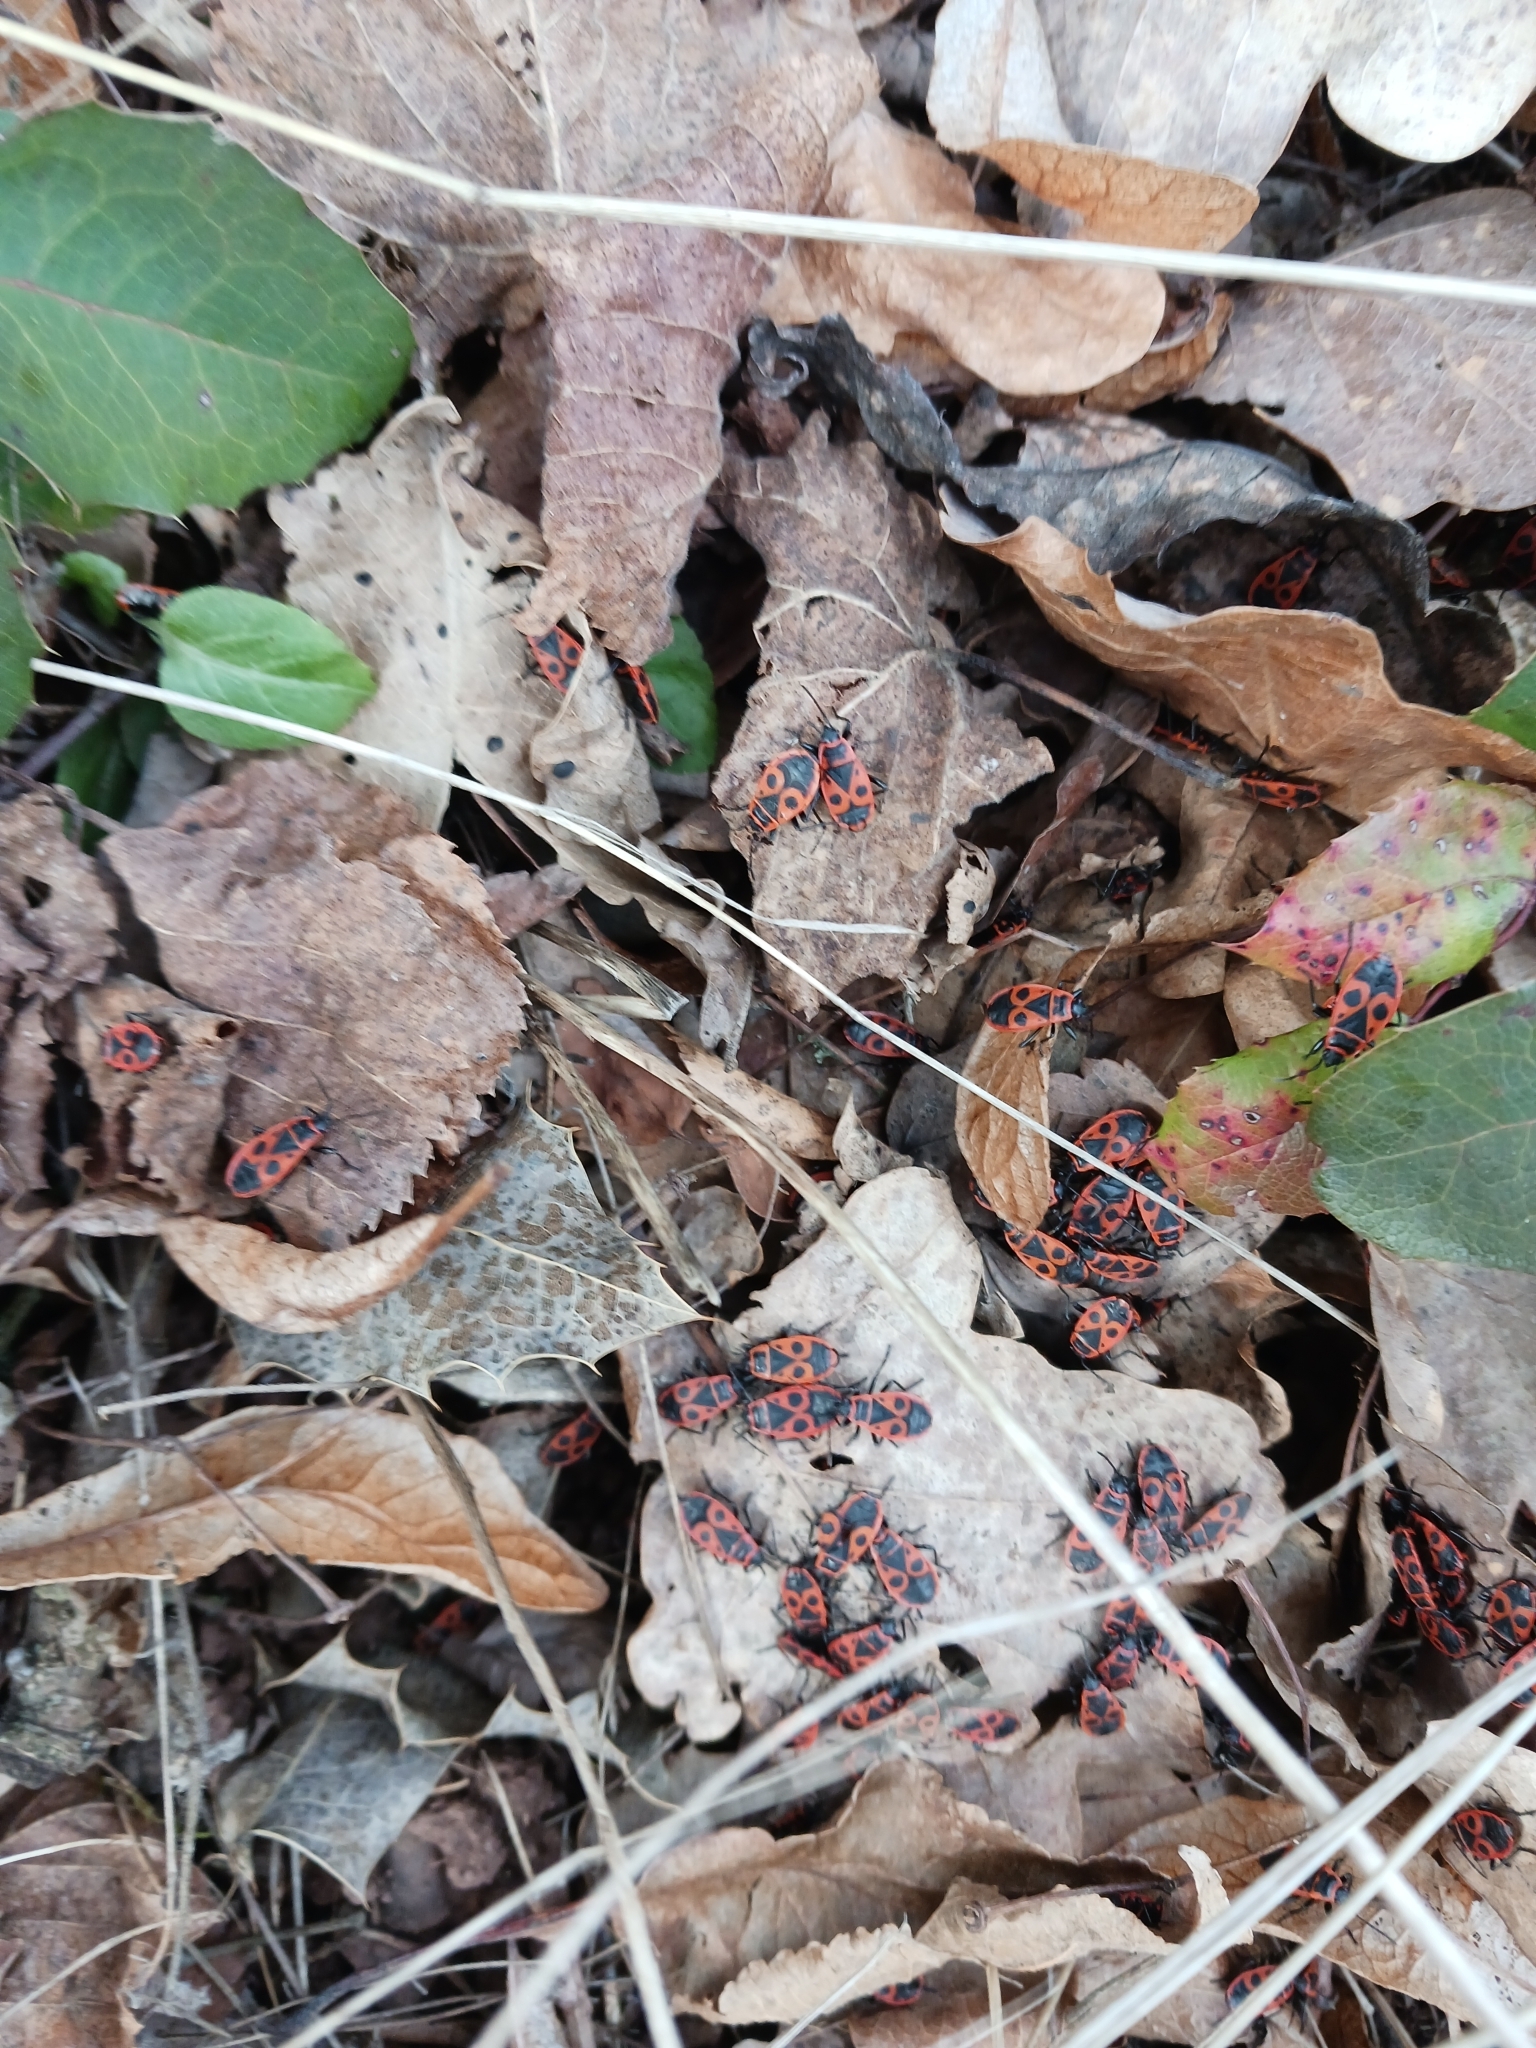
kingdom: Animalia
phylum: Arthropoda
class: Insecta
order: Hemiptera
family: Pyrrhocoridae
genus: Pyrrhocoris
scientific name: Pyrrhocoris apterus
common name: Firebug
